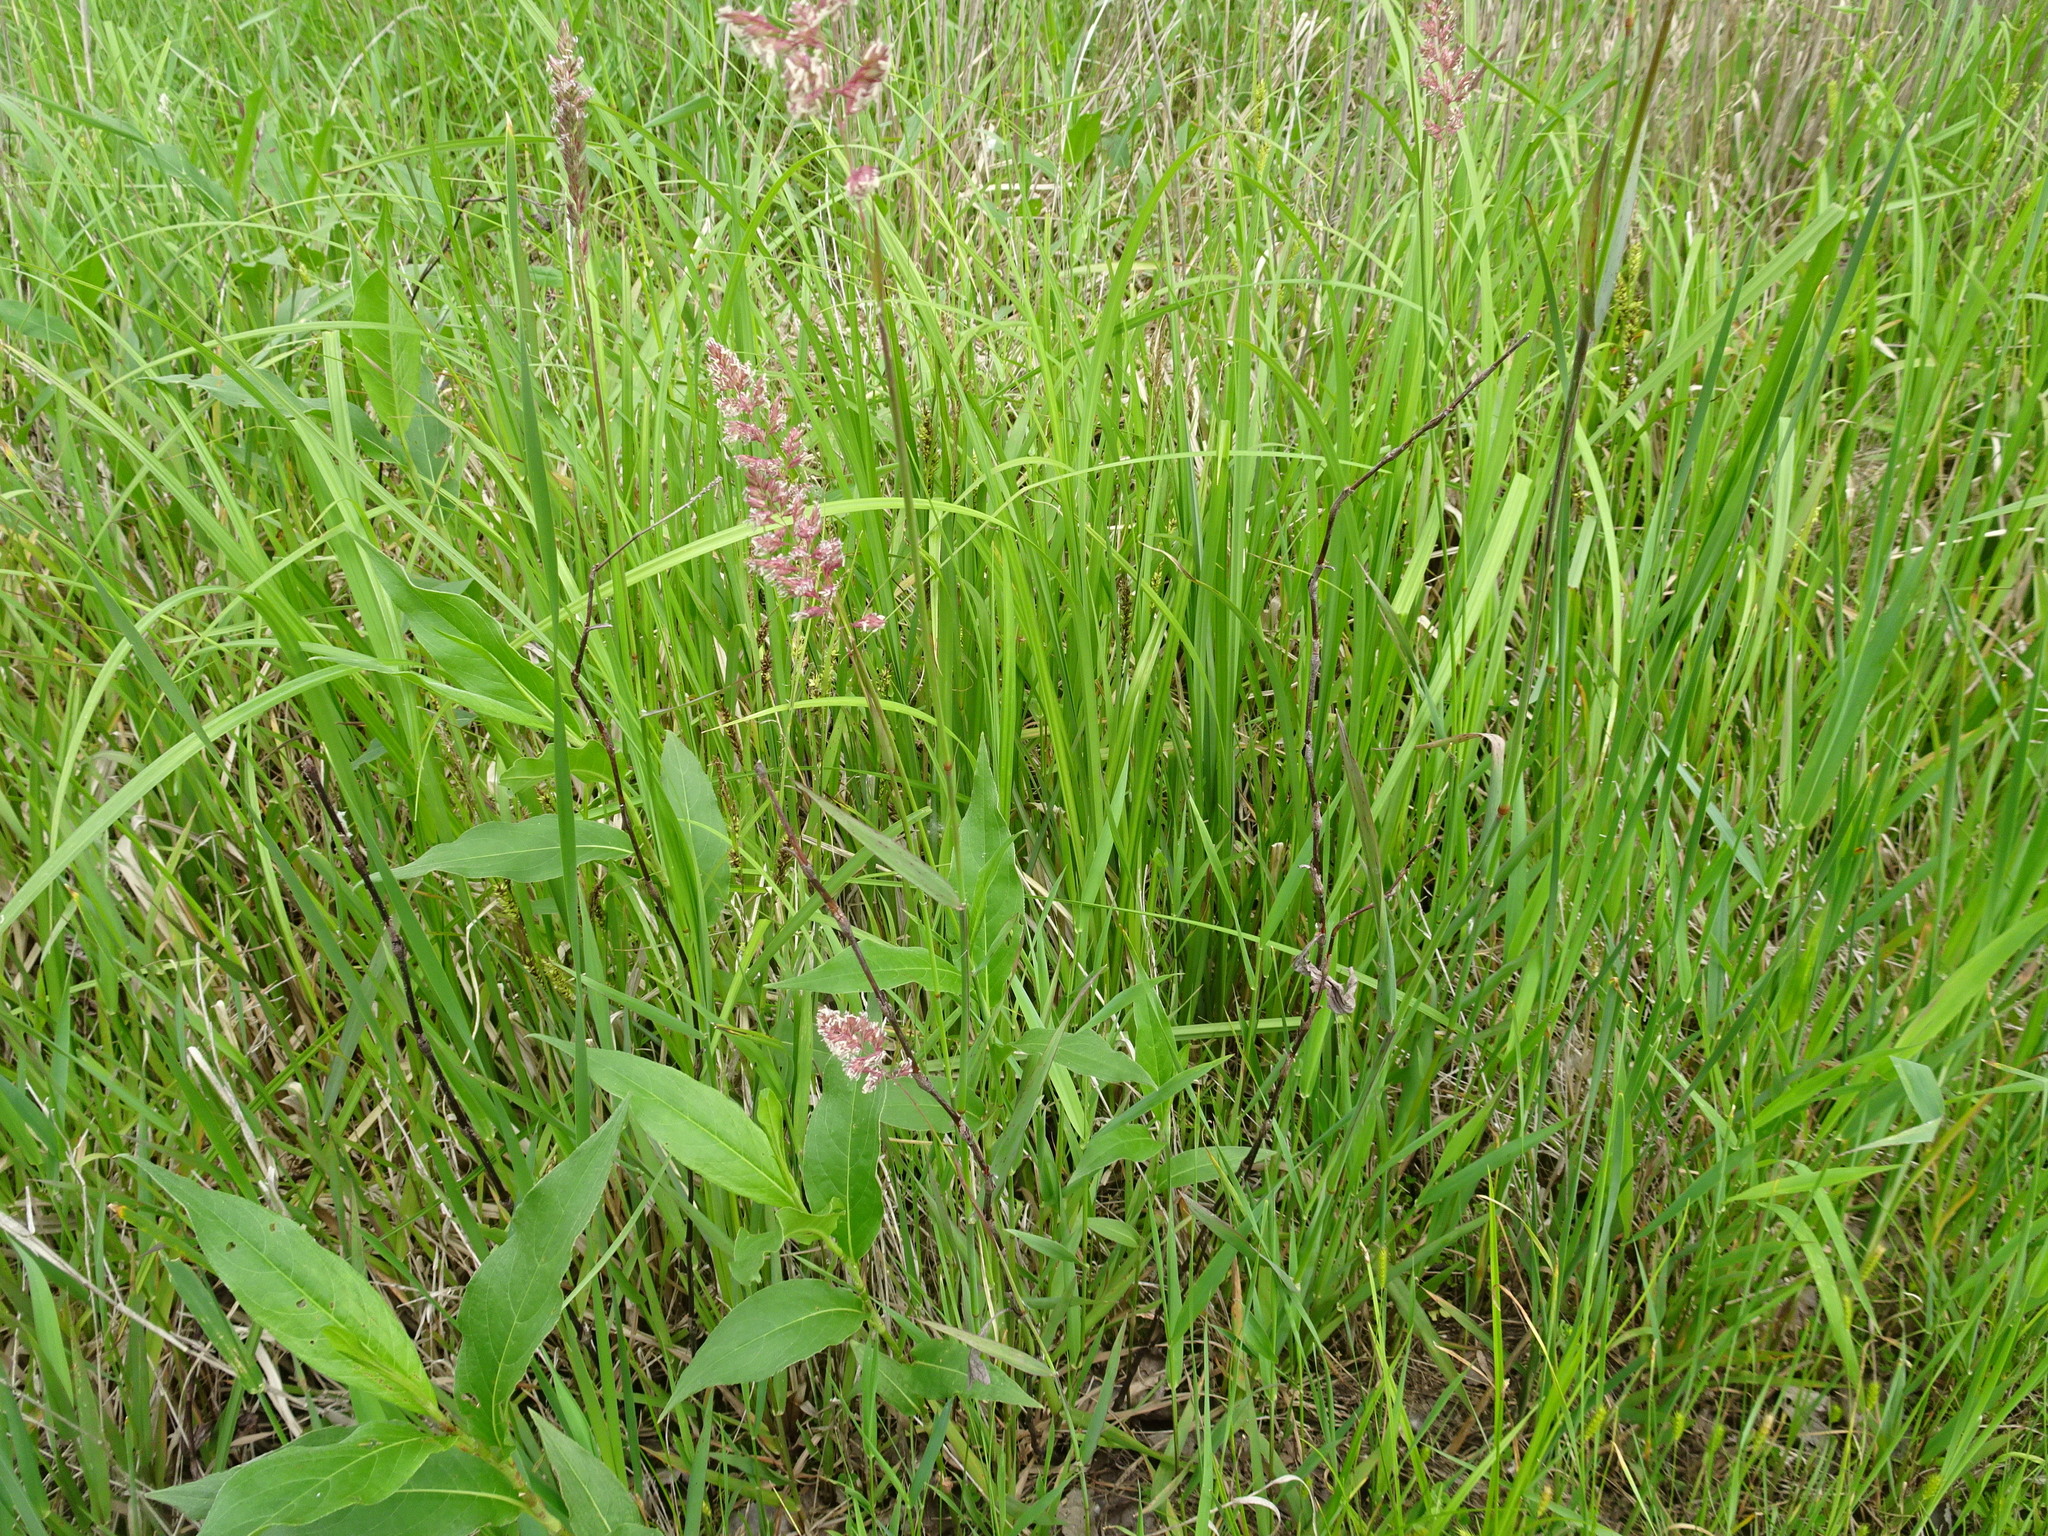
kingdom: Plantae
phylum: Tracheophyta
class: Liliopsida
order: Poales
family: Poaceae
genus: Phalaris
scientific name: Phalaris arundinacea
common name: Reed canary-grass
